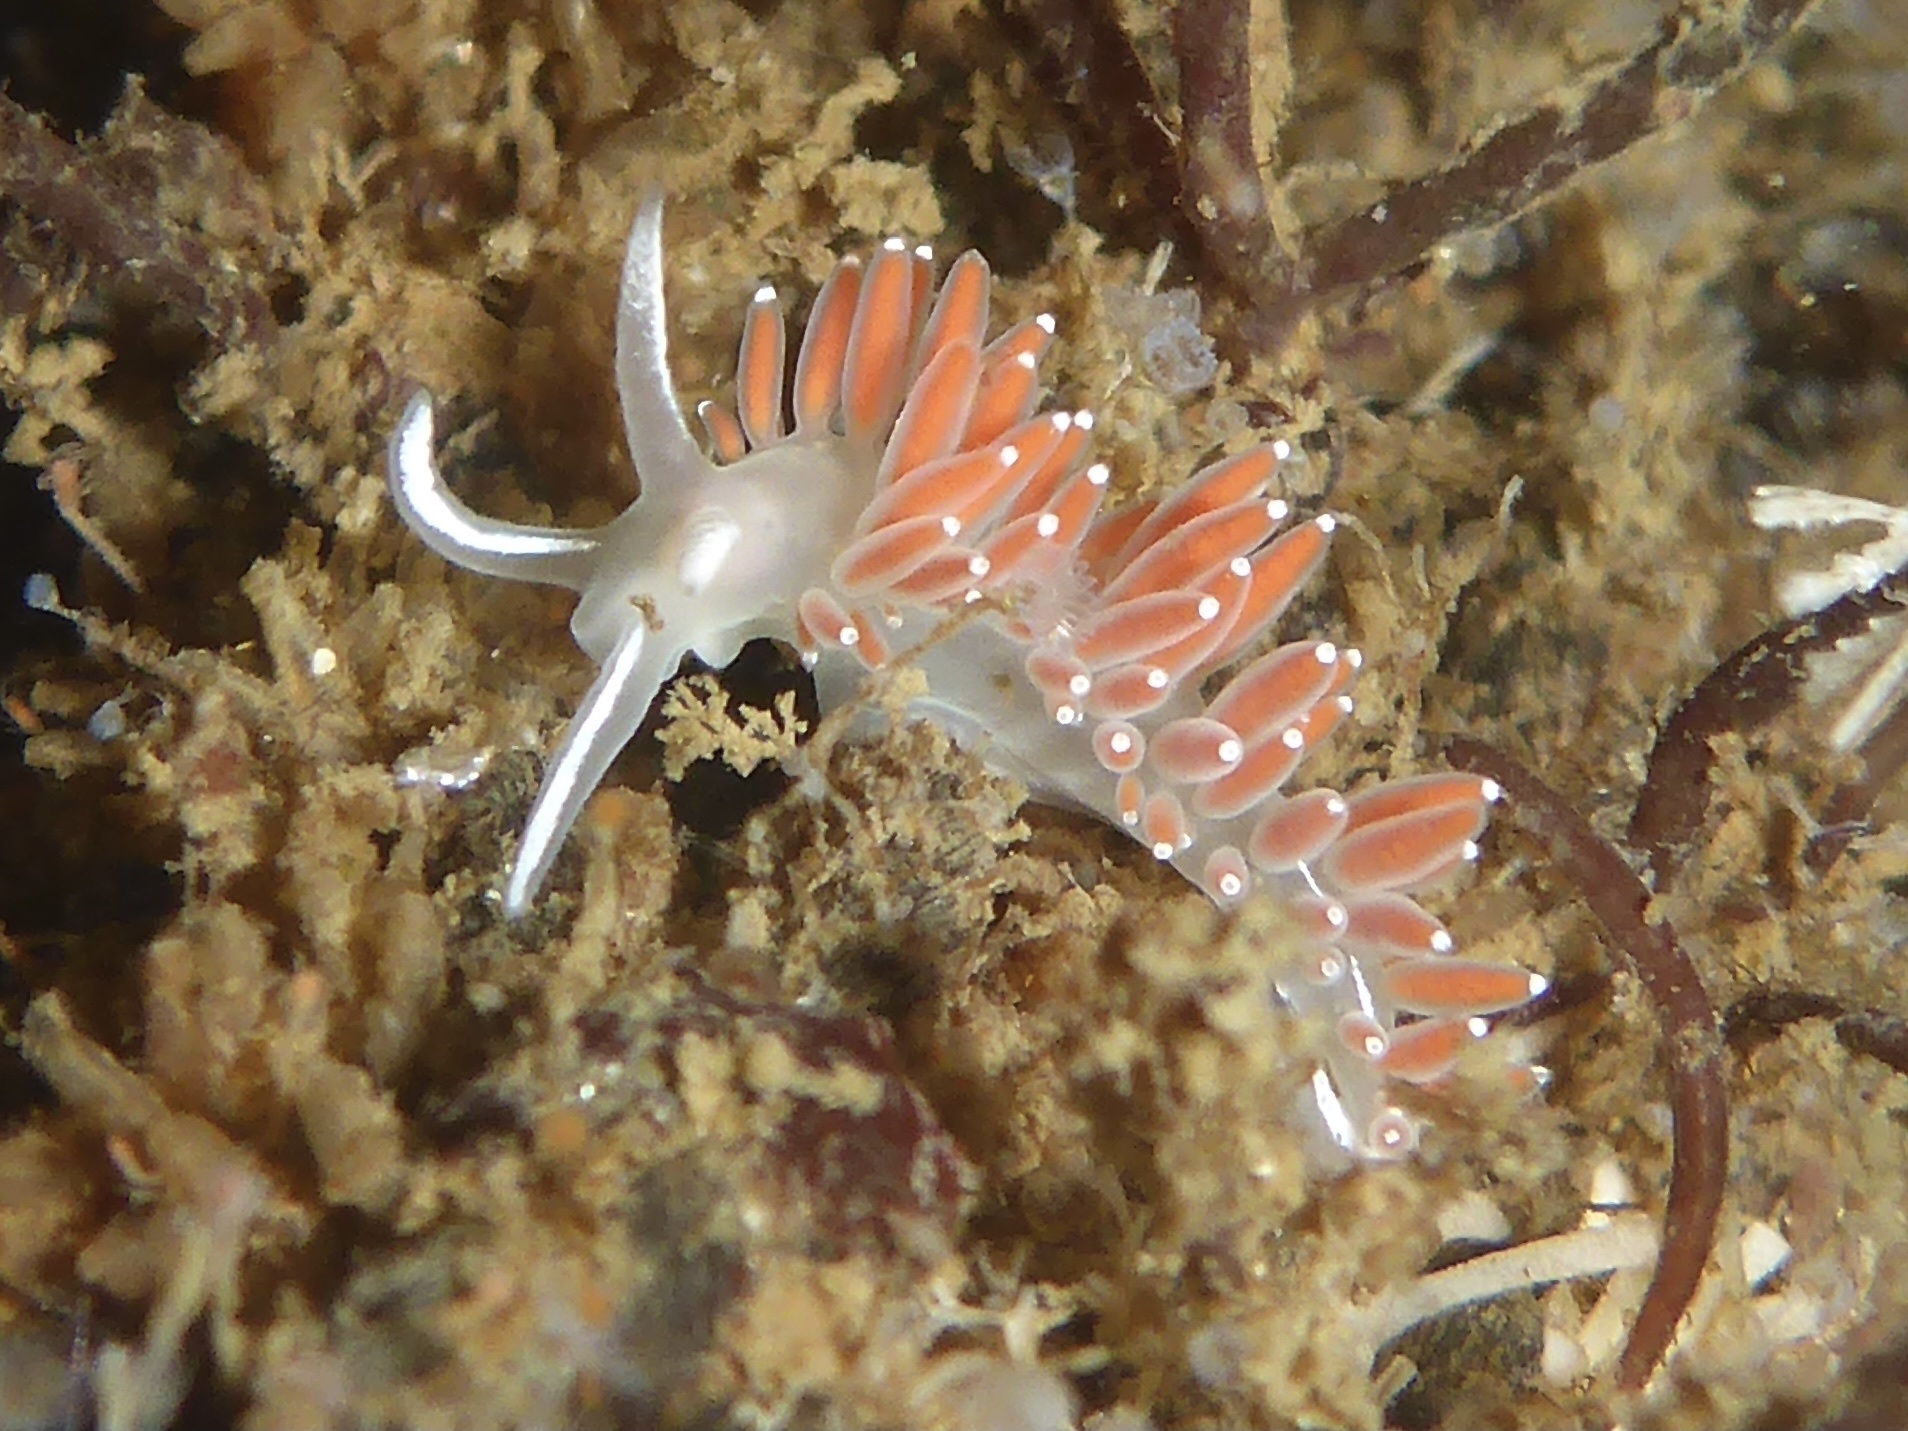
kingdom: Animalia
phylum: Mollusca
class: Gastropoda
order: Nudibranchia
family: Coryphellidae
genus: Coryphella
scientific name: Coryphella verrucosa
